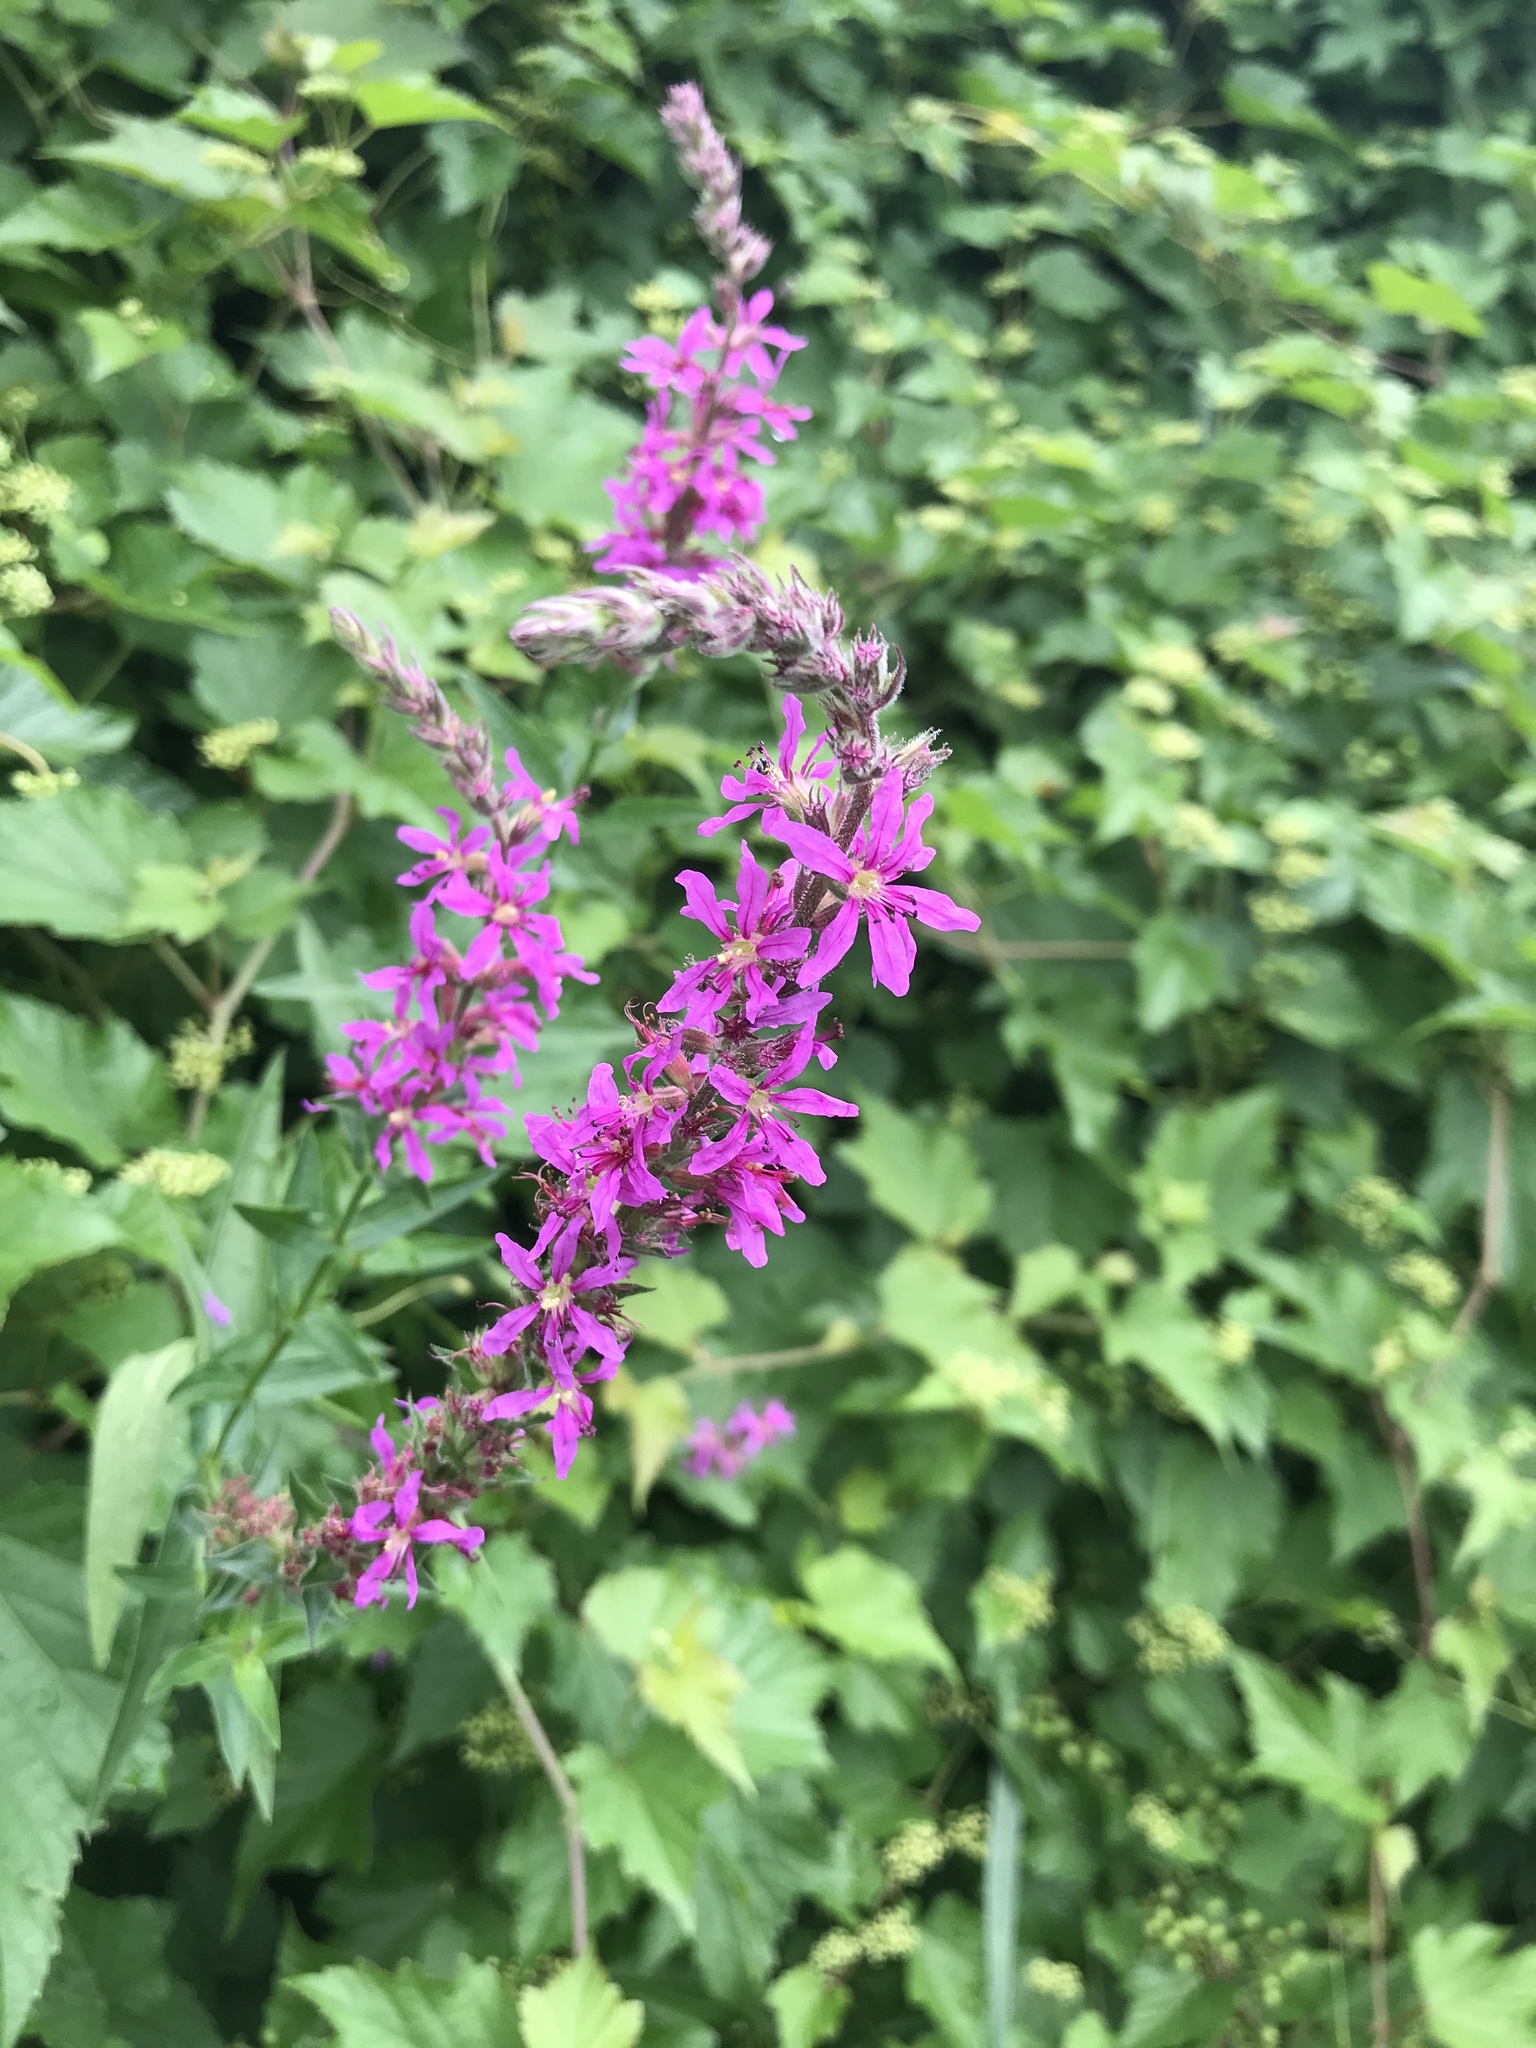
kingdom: Plantae
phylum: Tracheophyta
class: Magnoliopsida
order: Myrtales
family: Lythraceae
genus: Lythrum
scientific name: Lythrum salicaria
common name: Purple loosestrife
